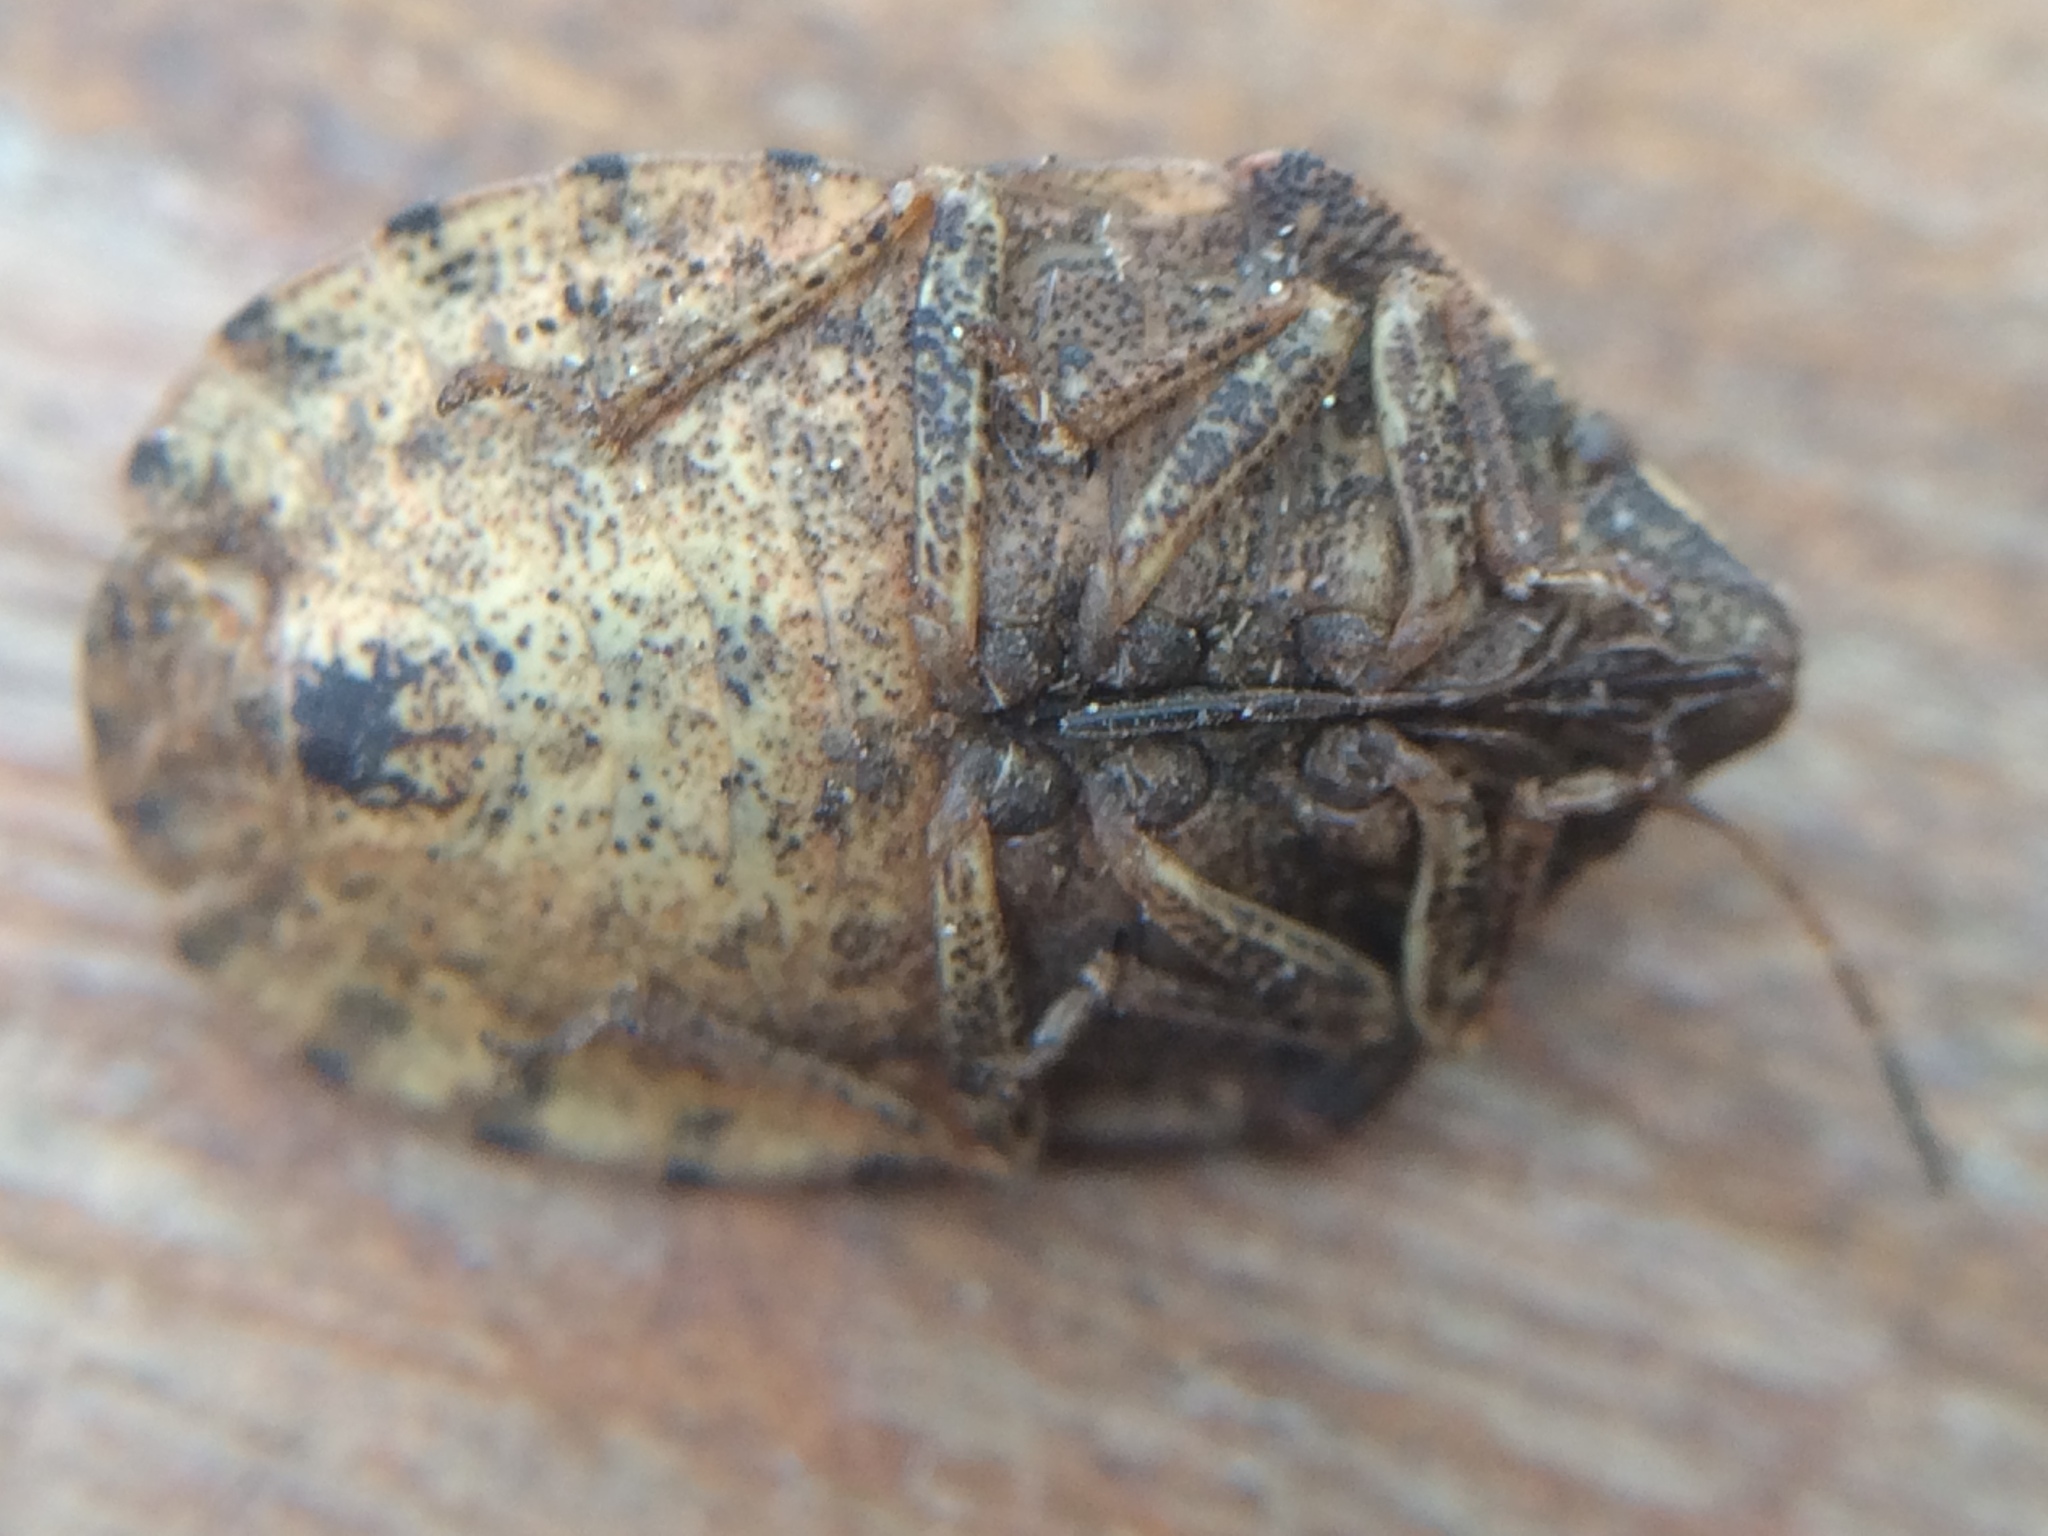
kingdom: Animalia
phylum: Arthropoda
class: Insecta
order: Hemiptera
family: Scutelleridae
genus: Eurygaster
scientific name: Eurygaster maura
